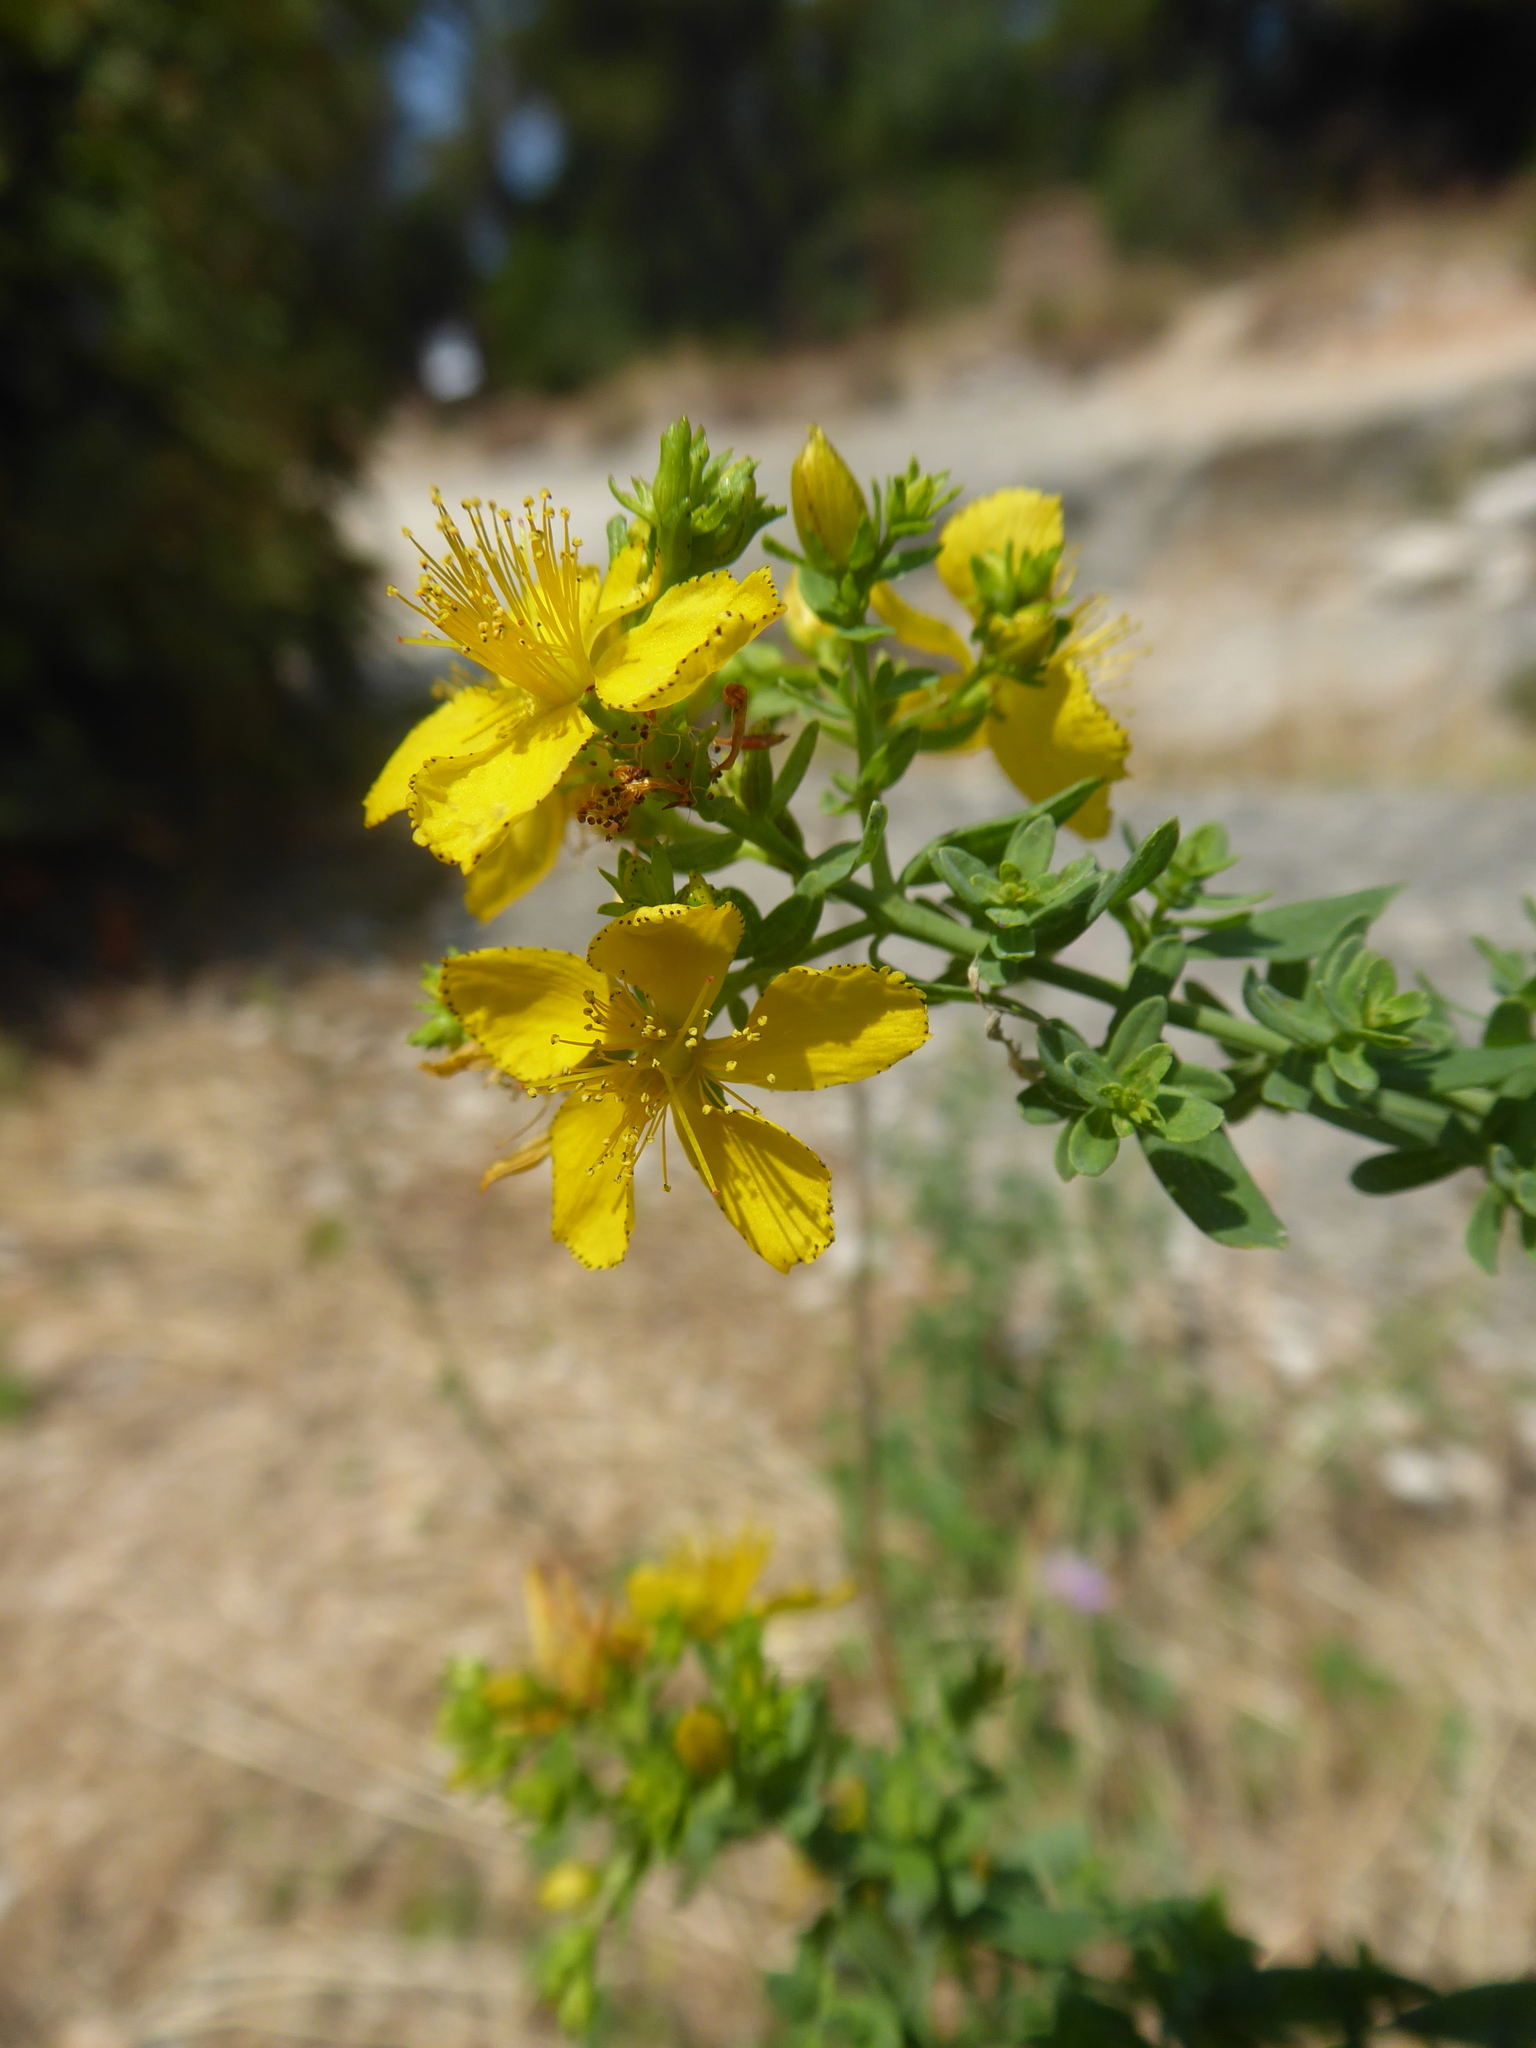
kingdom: Plantae
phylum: Tracheophyta
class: Magnoliopsida
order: Malpighiales
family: Hypericaceae
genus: Hypericum
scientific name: Hypericum perforatum
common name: Common st. johnswort
